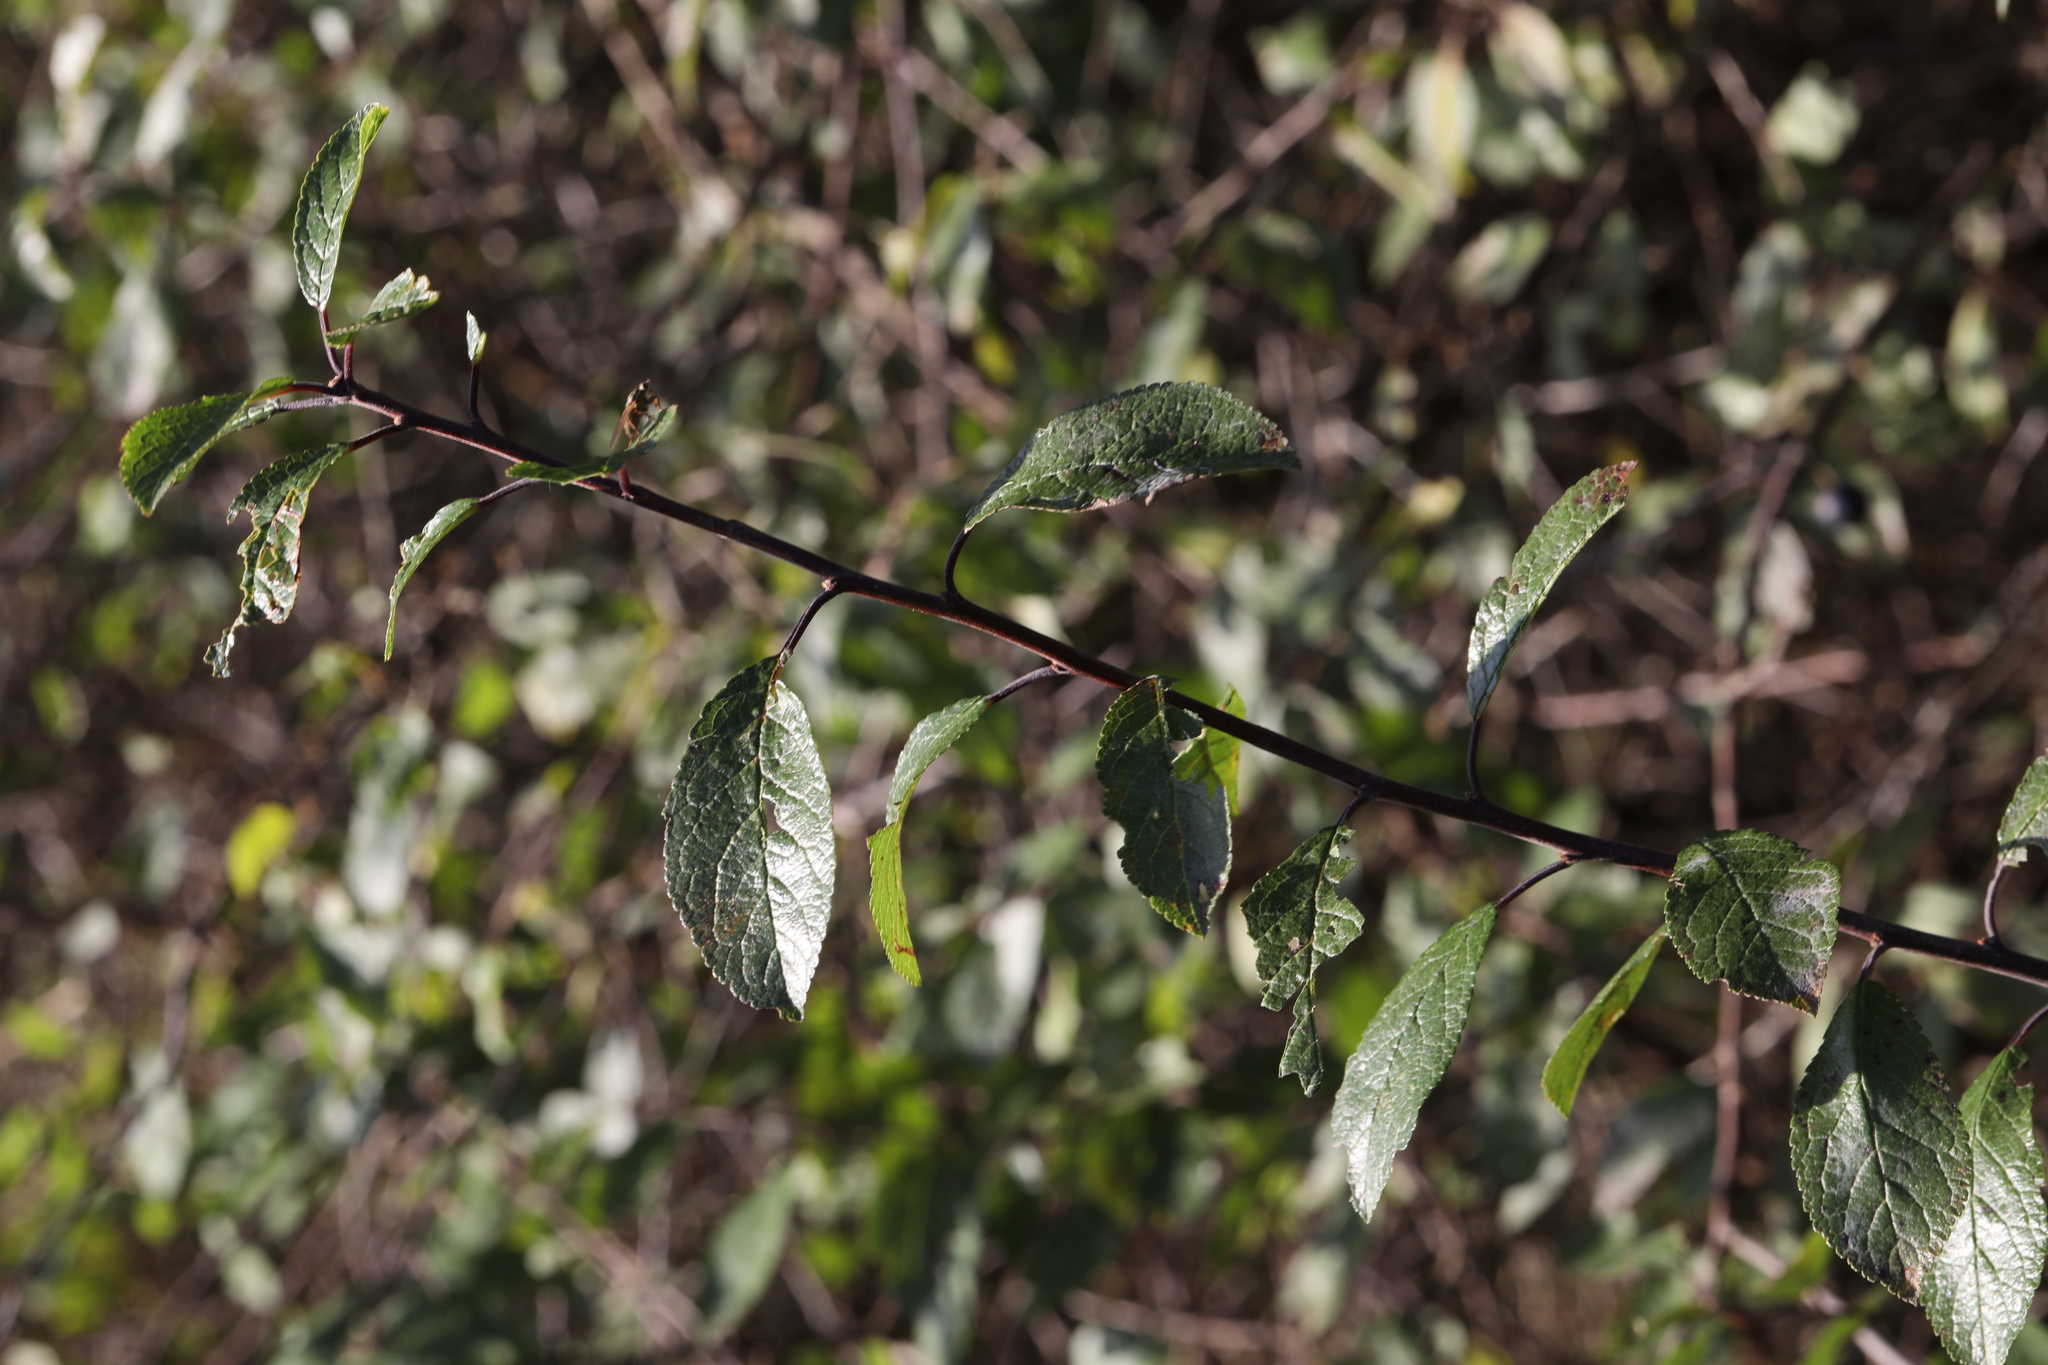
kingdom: Plantae
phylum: Tracheophyta
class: Magnoliopsida
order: Rosales
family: Rosaceae
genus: Prunus
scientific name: Prunus spinosa
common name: Blackthorn
